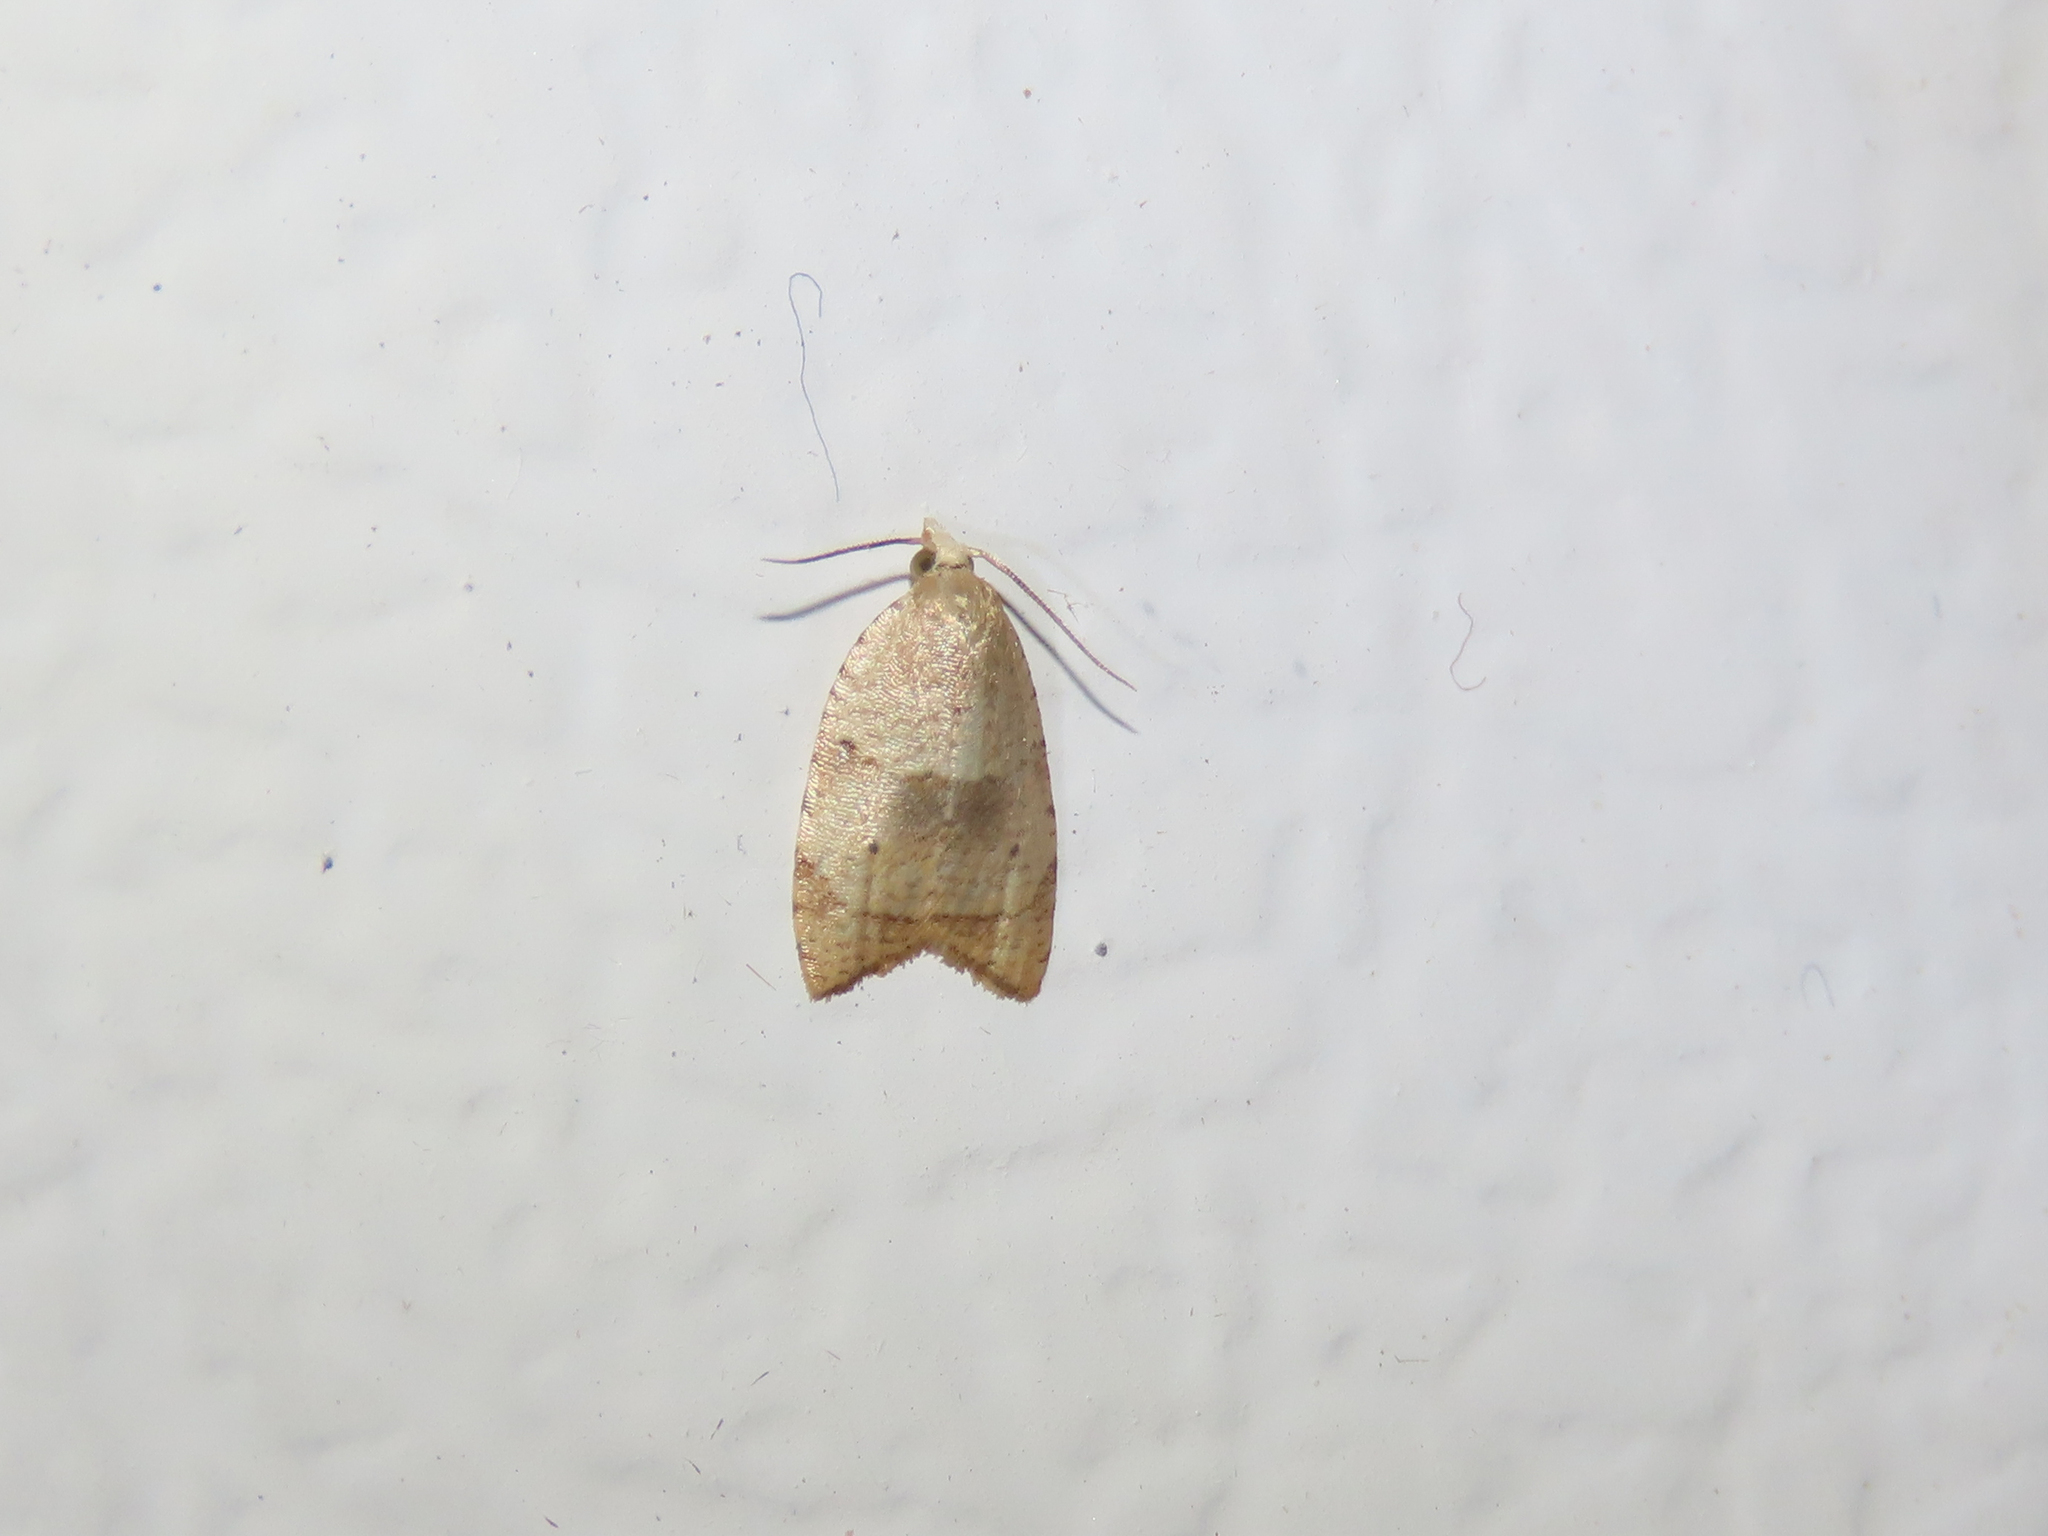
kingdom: Animalia
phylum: Arthropoda
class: Insecta
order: Lepidoptera
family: Tortricidae
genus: Coelostathma
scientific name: Coelostathma discopunctana
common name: Batman moth
